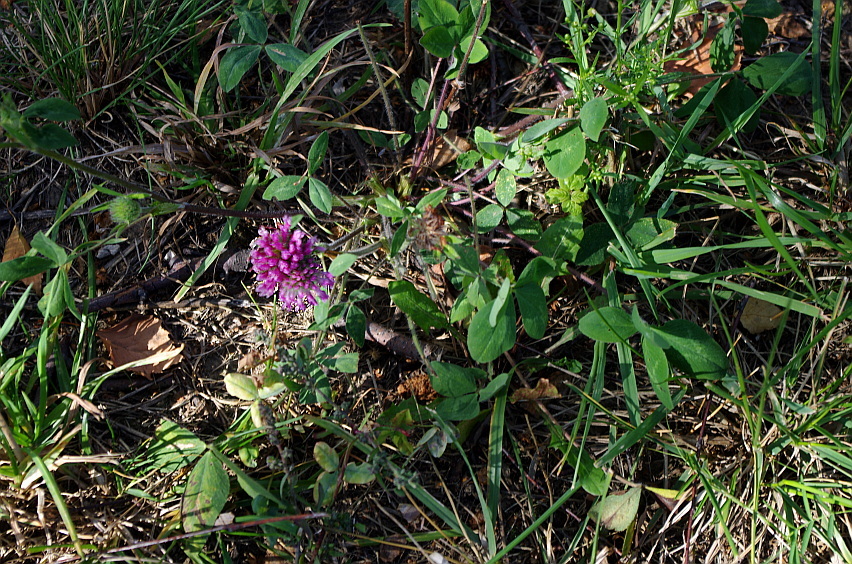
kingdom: Plantae
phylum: Tracheophyta
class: Magnoliopsida
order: Fabales
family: Fabaceae
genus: Trifolium
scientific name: Trifolium pratense
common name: Red clover
